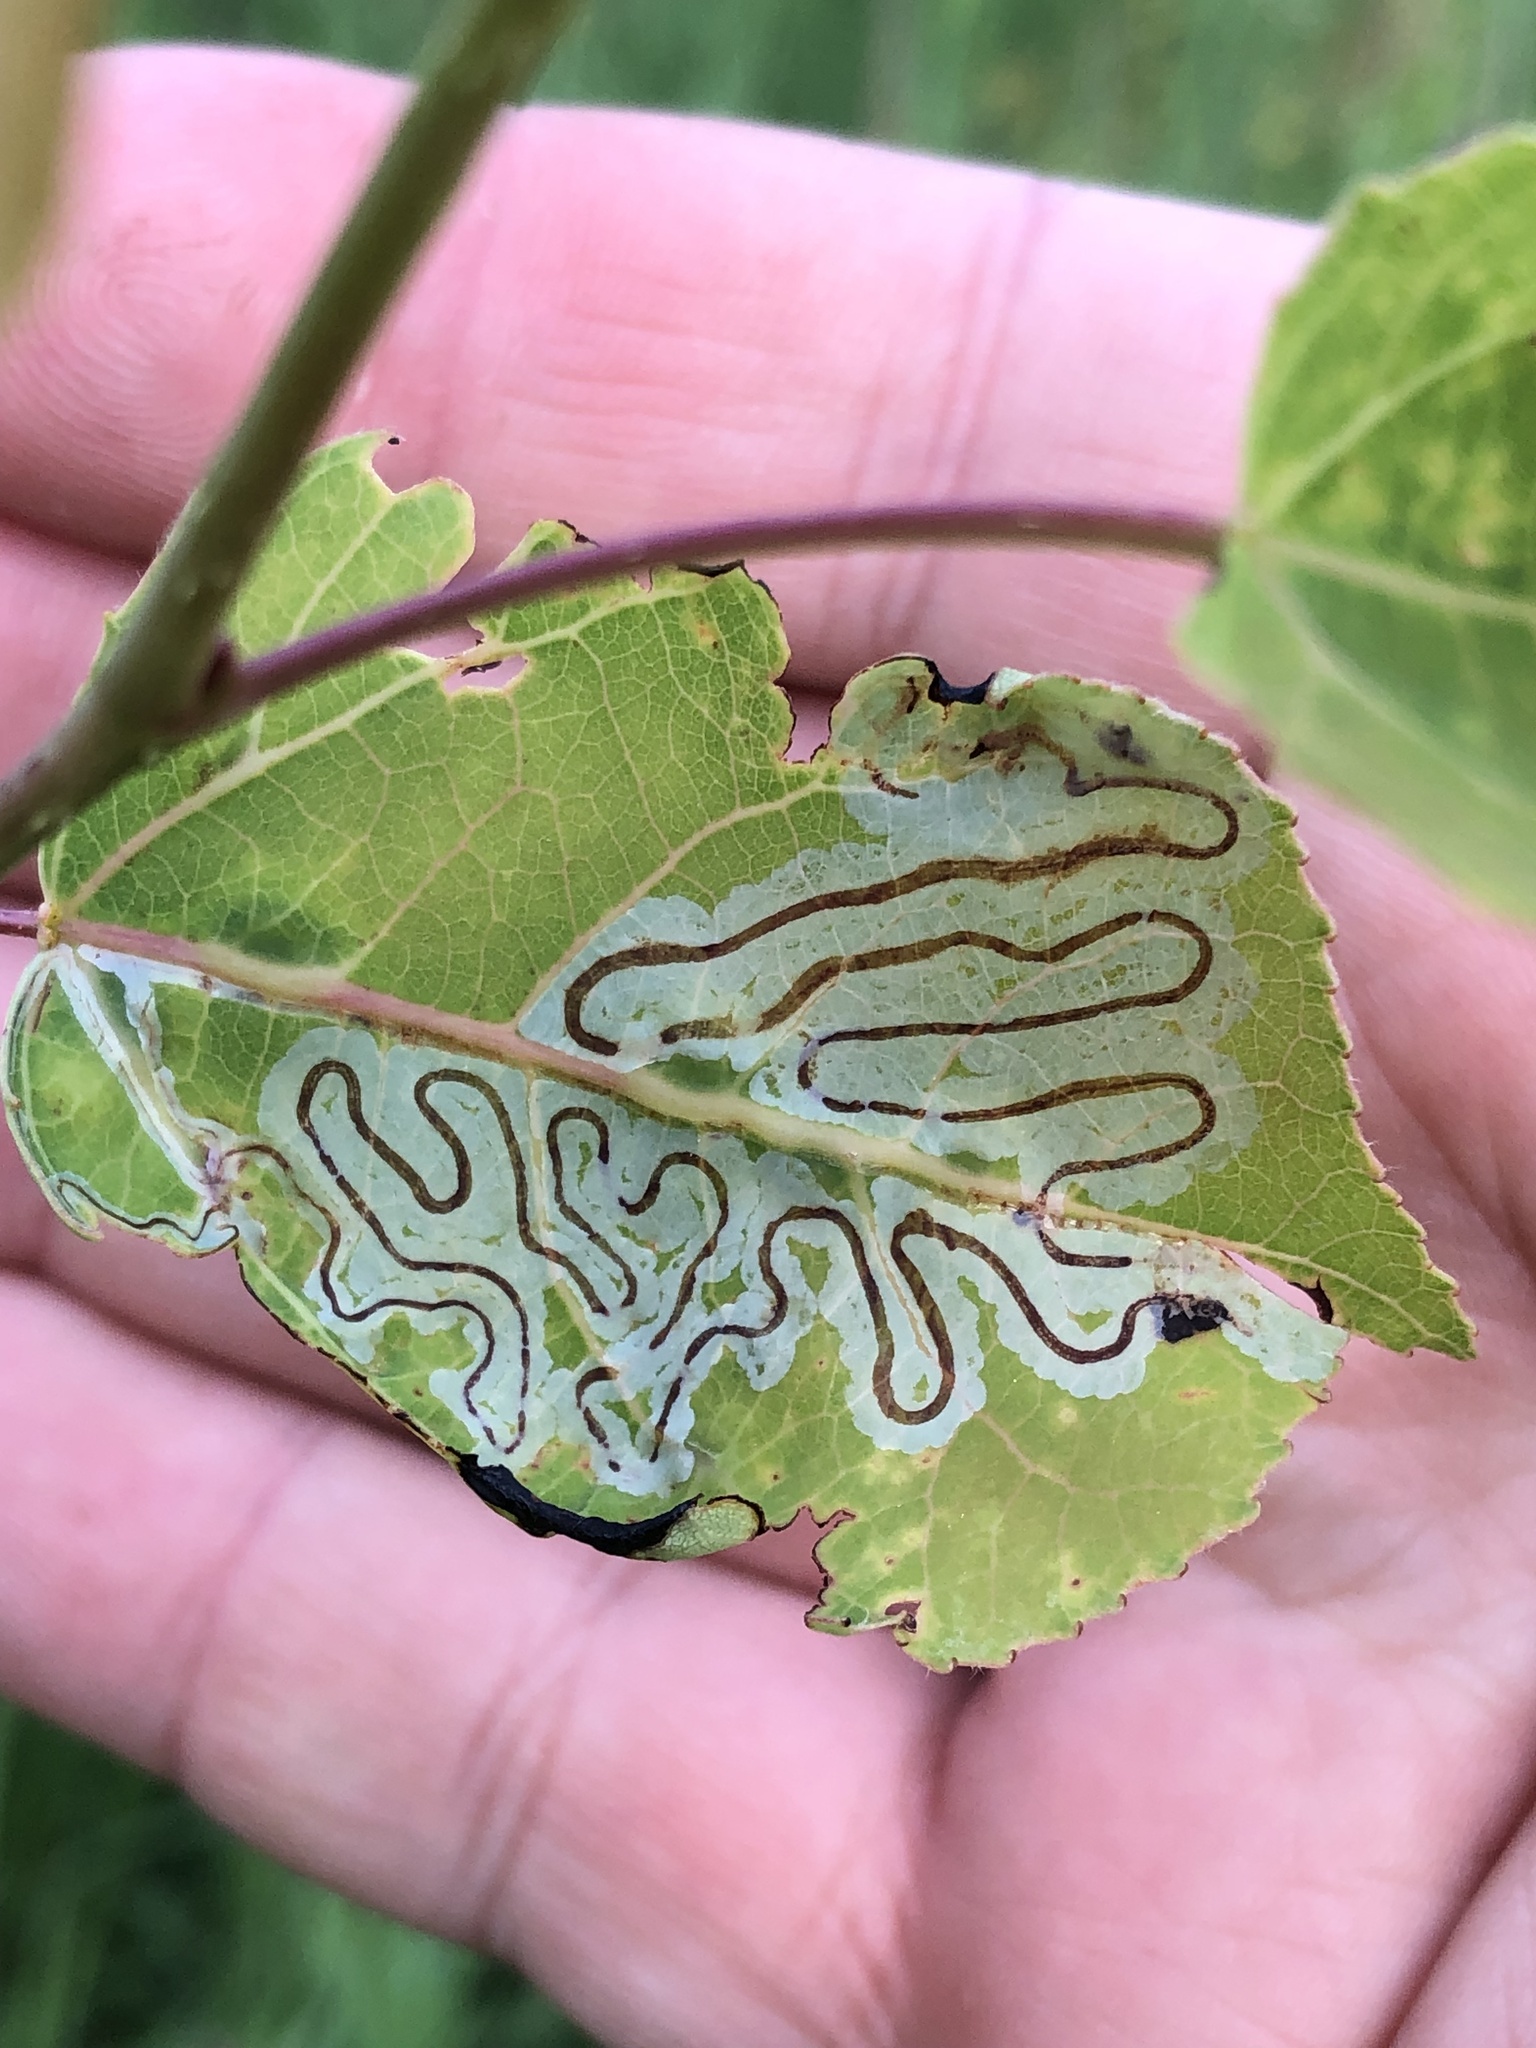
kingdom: Animalia
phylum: Arthropoda
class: Insecta
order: Lepidoptera
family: Gracillariidae
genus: Phyllocnistis
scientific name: Phyllocnistis populiella
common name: Aspen serpentine leafminer moth
